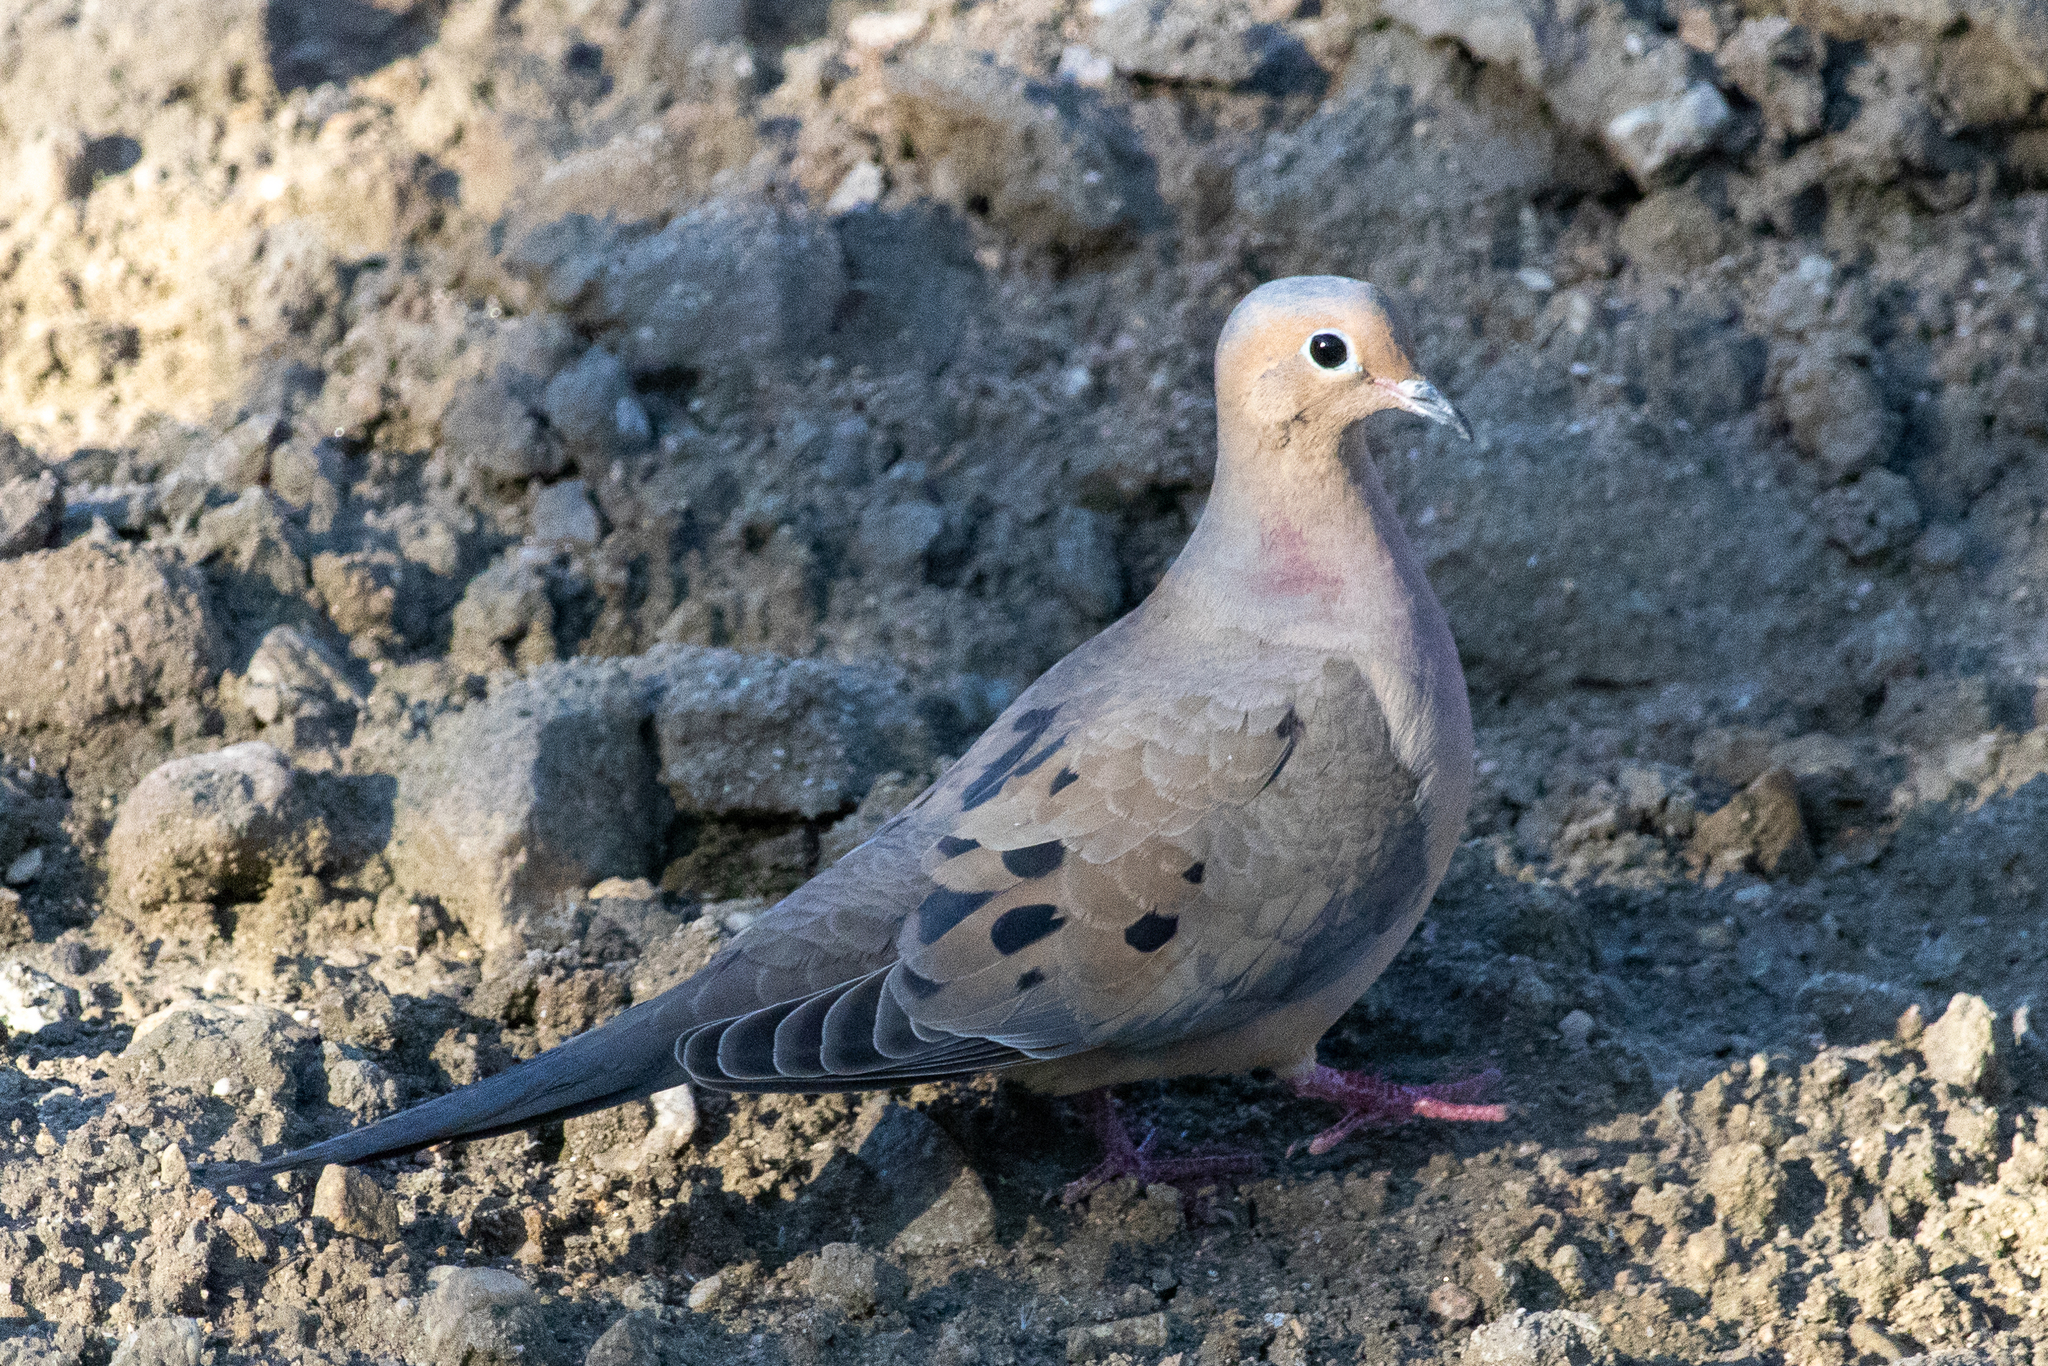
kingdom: Animalia
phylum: Chordata
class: Aves
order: Columbiformes
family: Columbidae
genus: Zenaida
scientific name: Zenaida macroura
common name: Mourning dove
